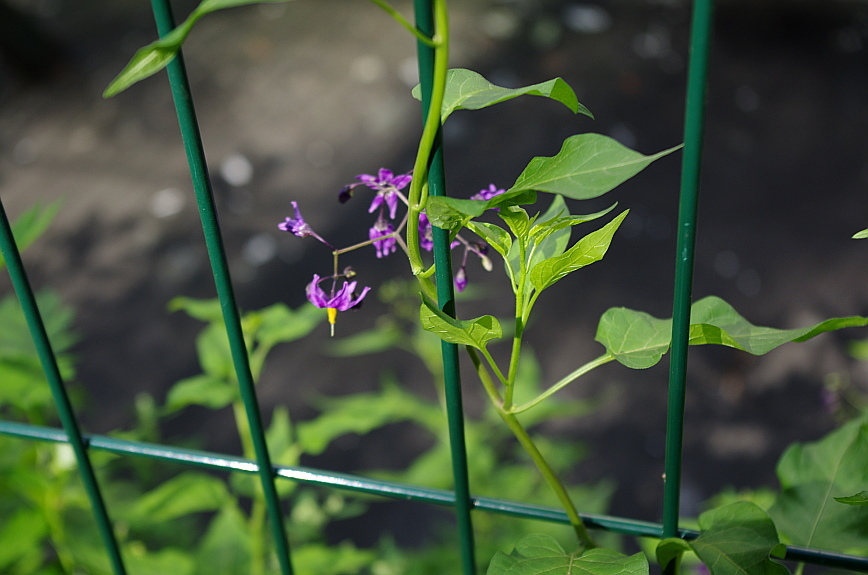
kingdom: Plantae
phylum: Tracheophyta
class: Magnoliopsida
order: Solanales
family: Solanaceae
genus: Solanum
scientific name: Solanum dulcamara
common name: Climbing nightshade
